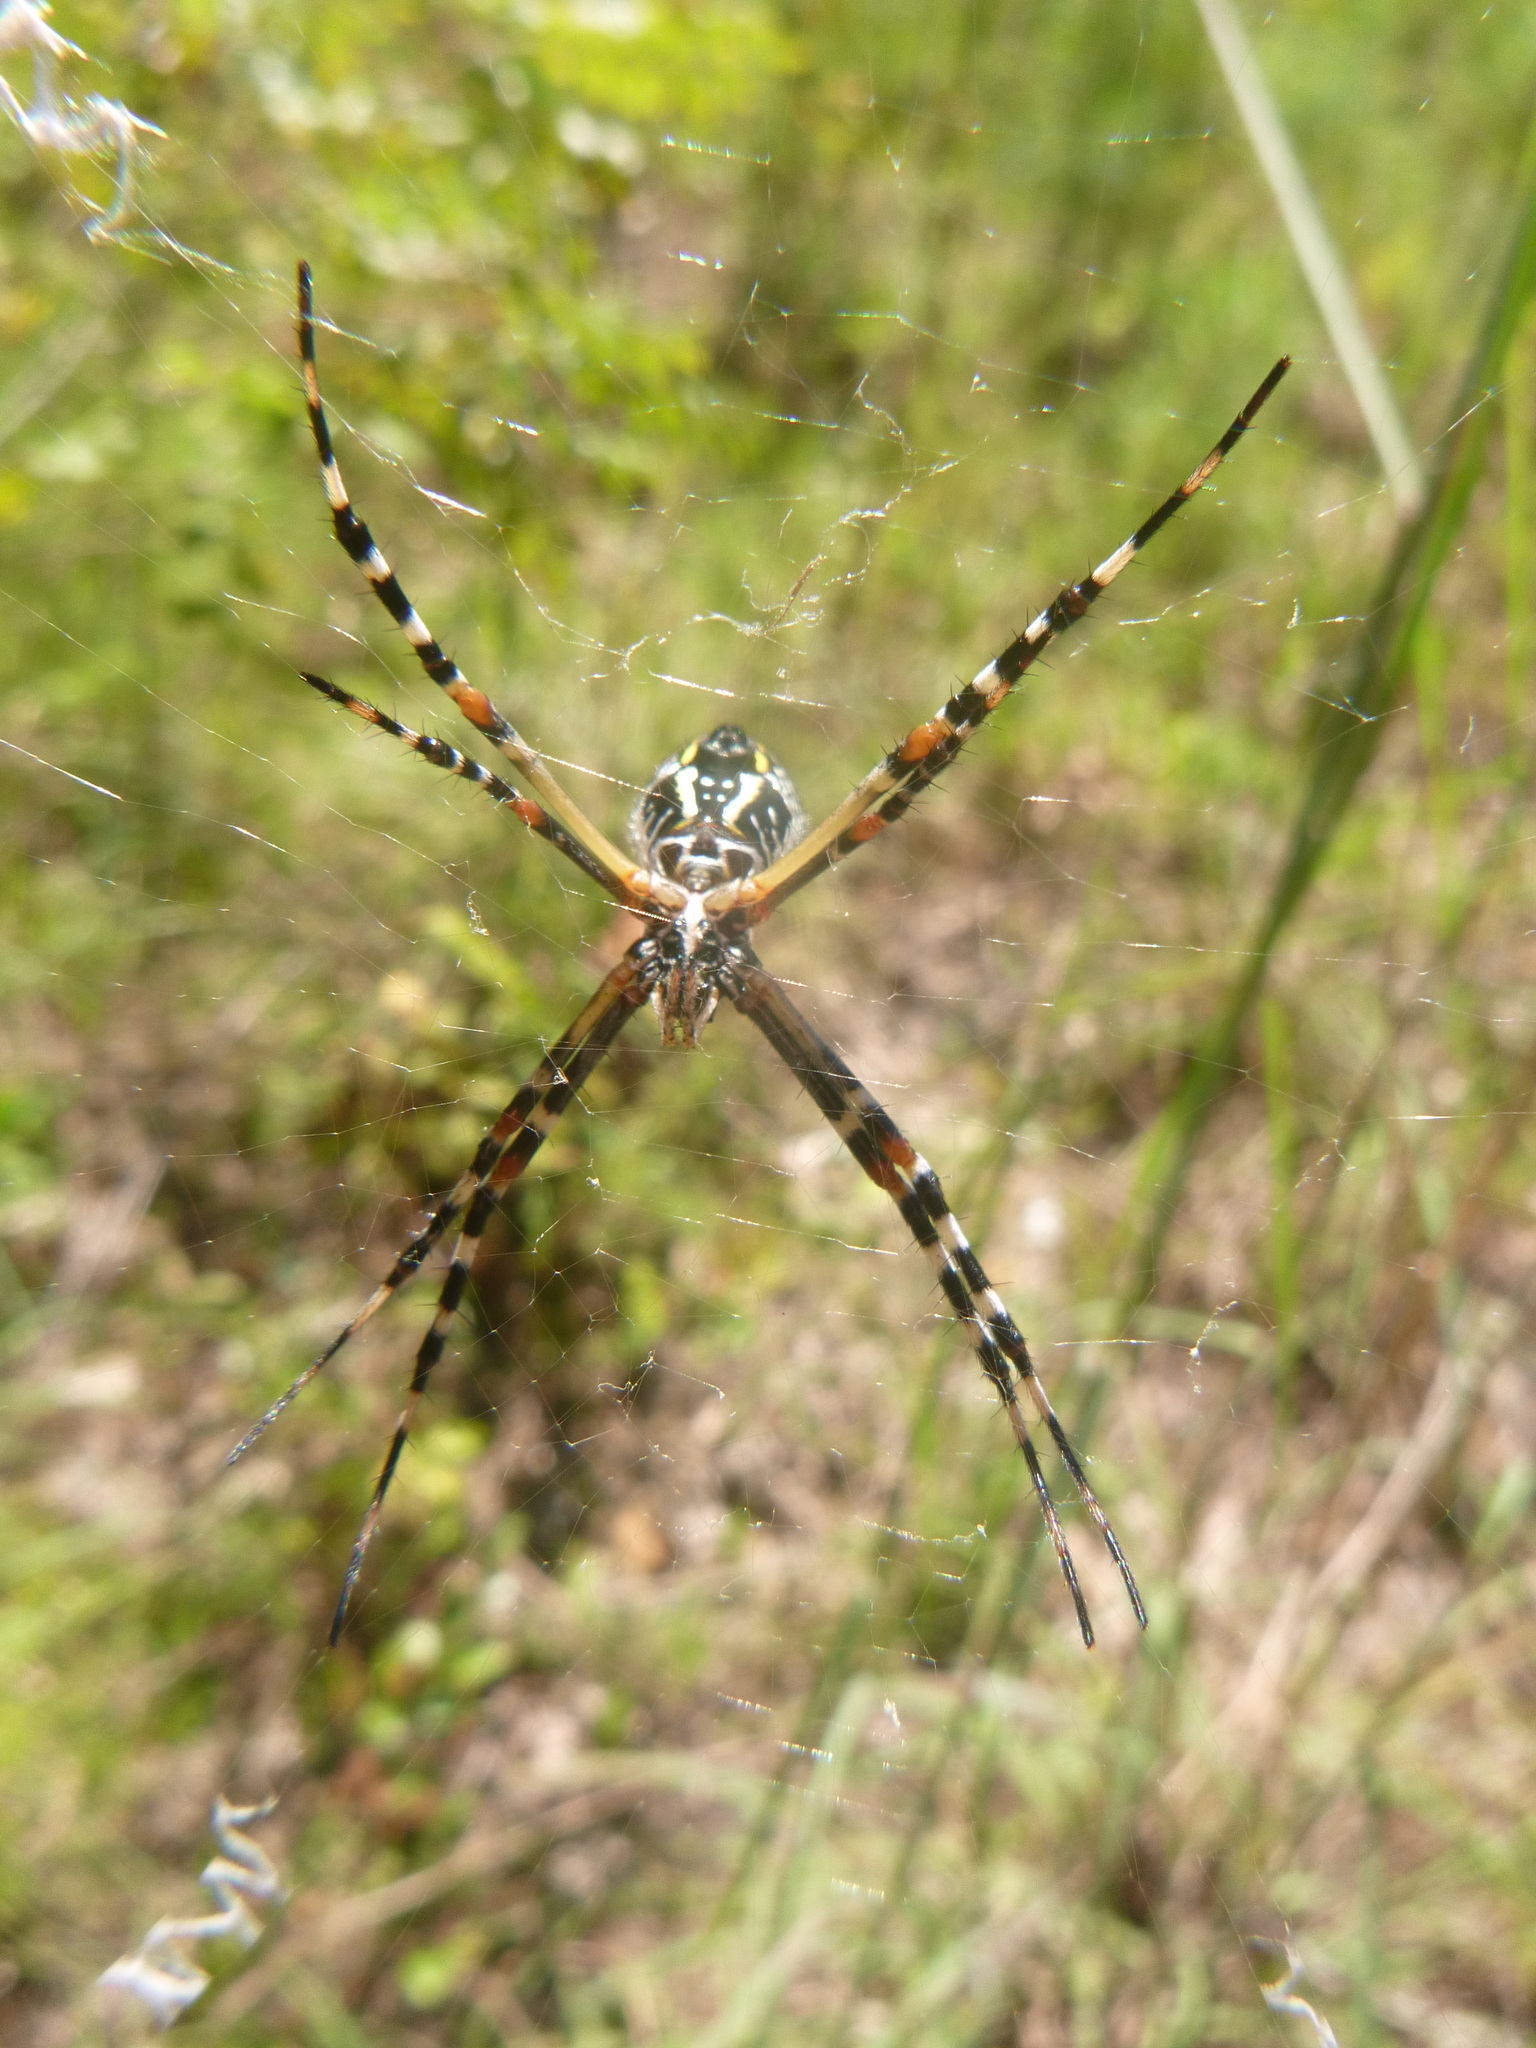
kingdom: Animalia
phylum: Arthropoda
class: Arachnida
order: Araneae
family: Araneidae
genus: Argiope
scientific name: Argiope florida
